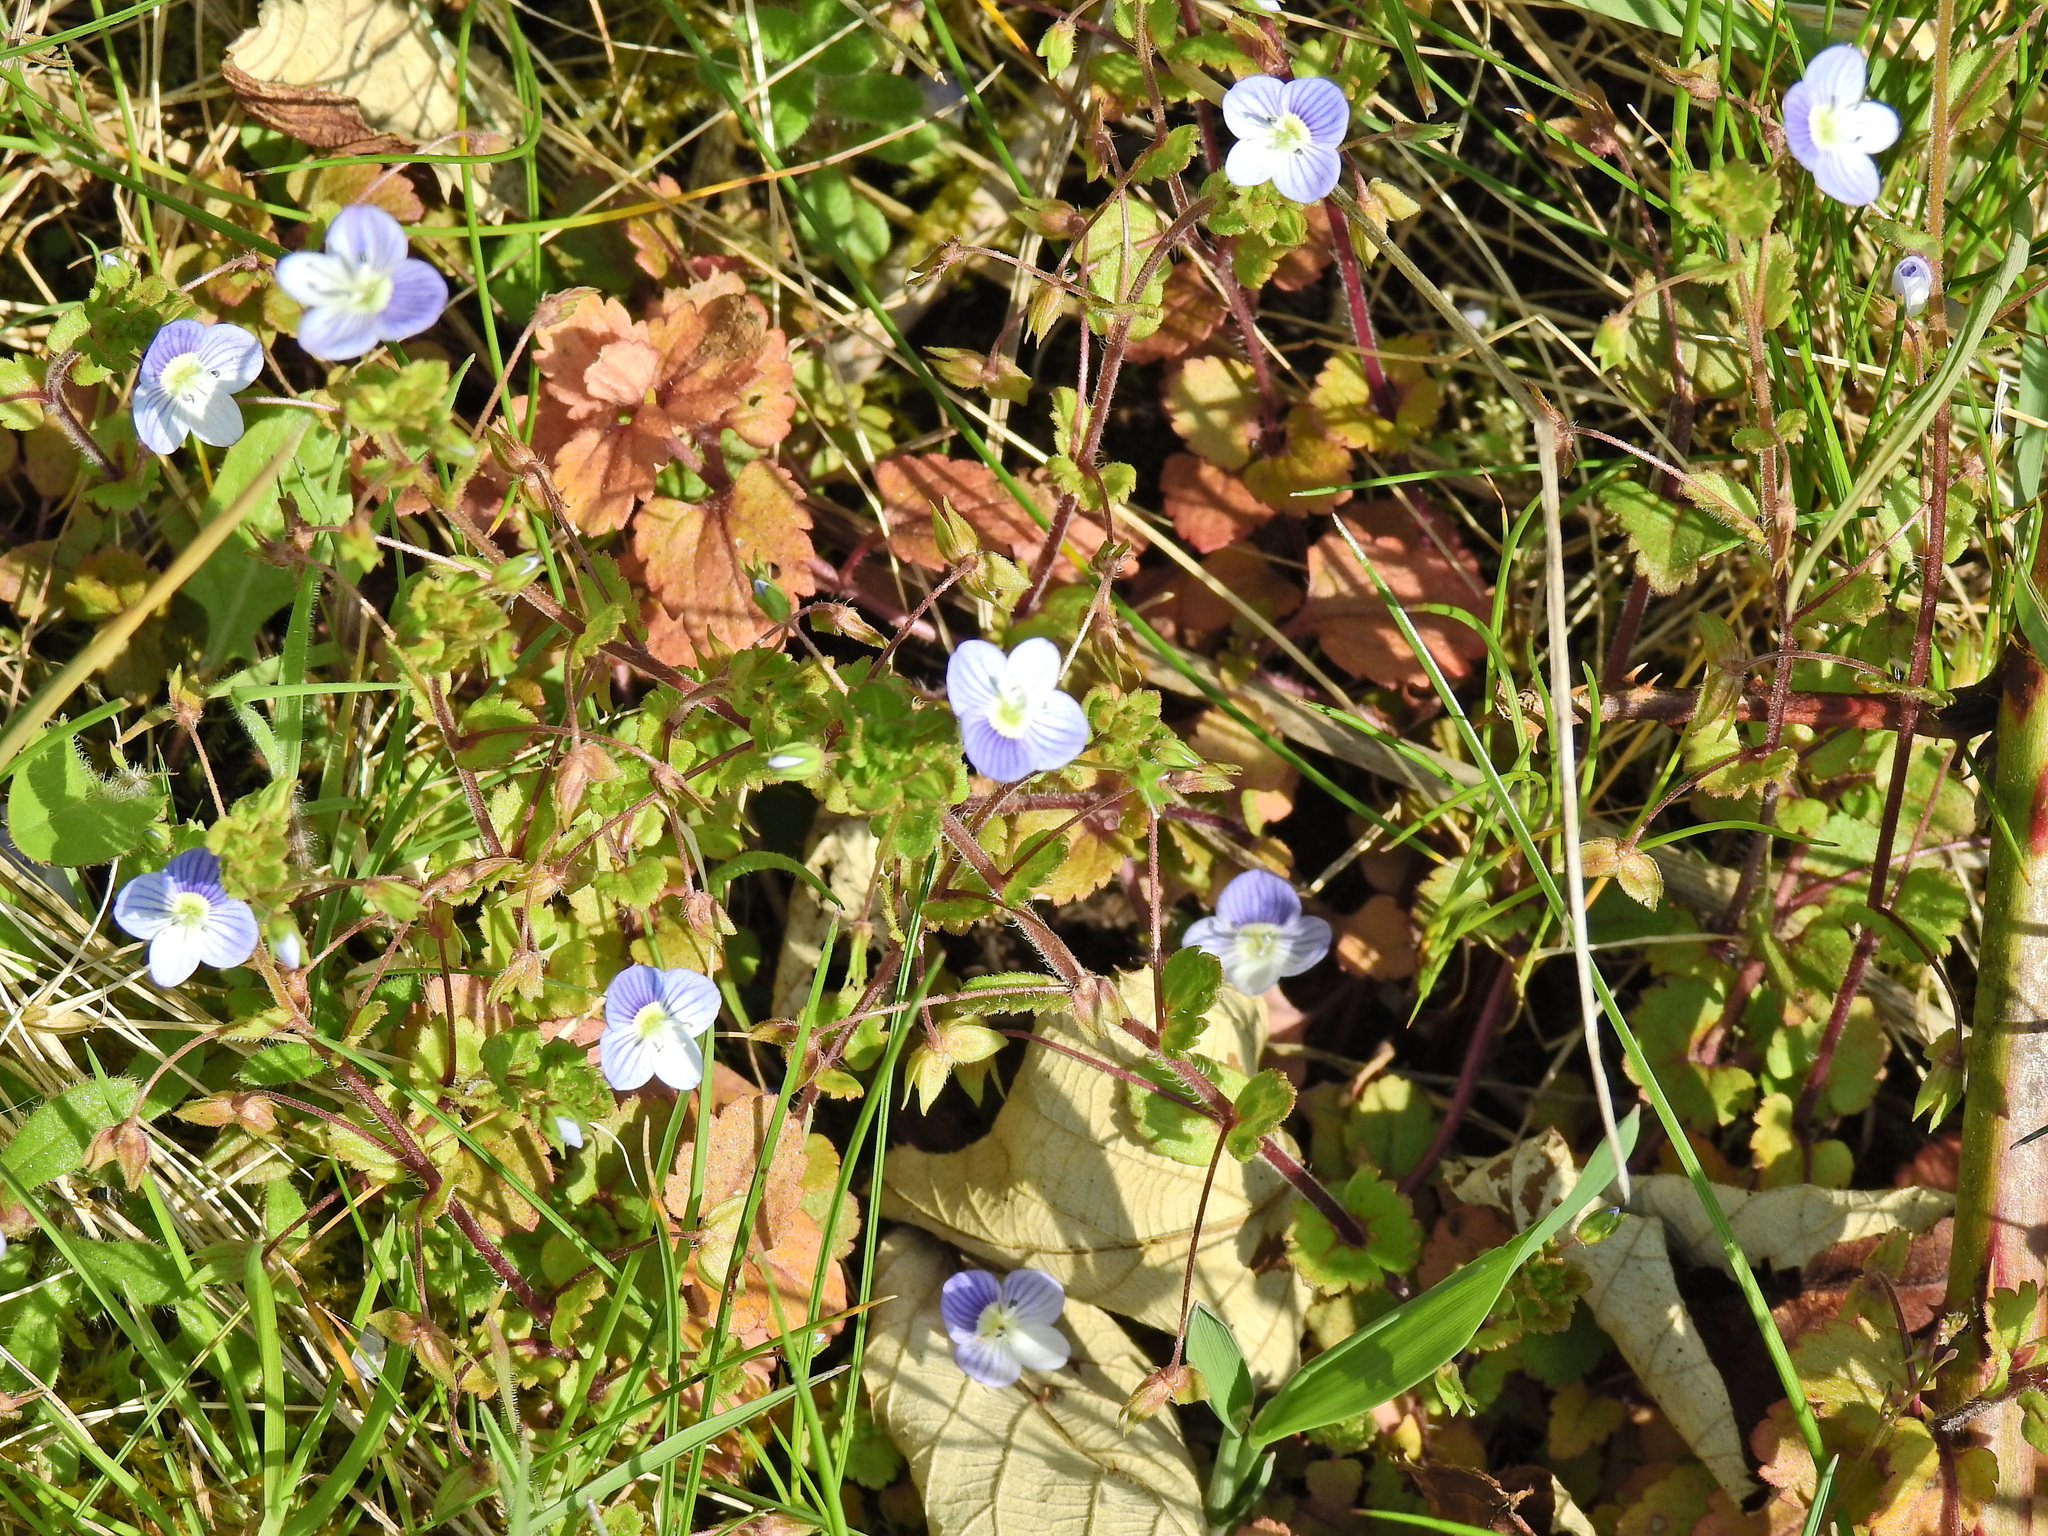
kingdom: Plantae
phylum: Tracheophyta
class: Magnoliopsida
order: Lamiales
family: Plantaginaceae
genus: Veronica
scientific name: Veronica persica
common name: Common field-speedwell
